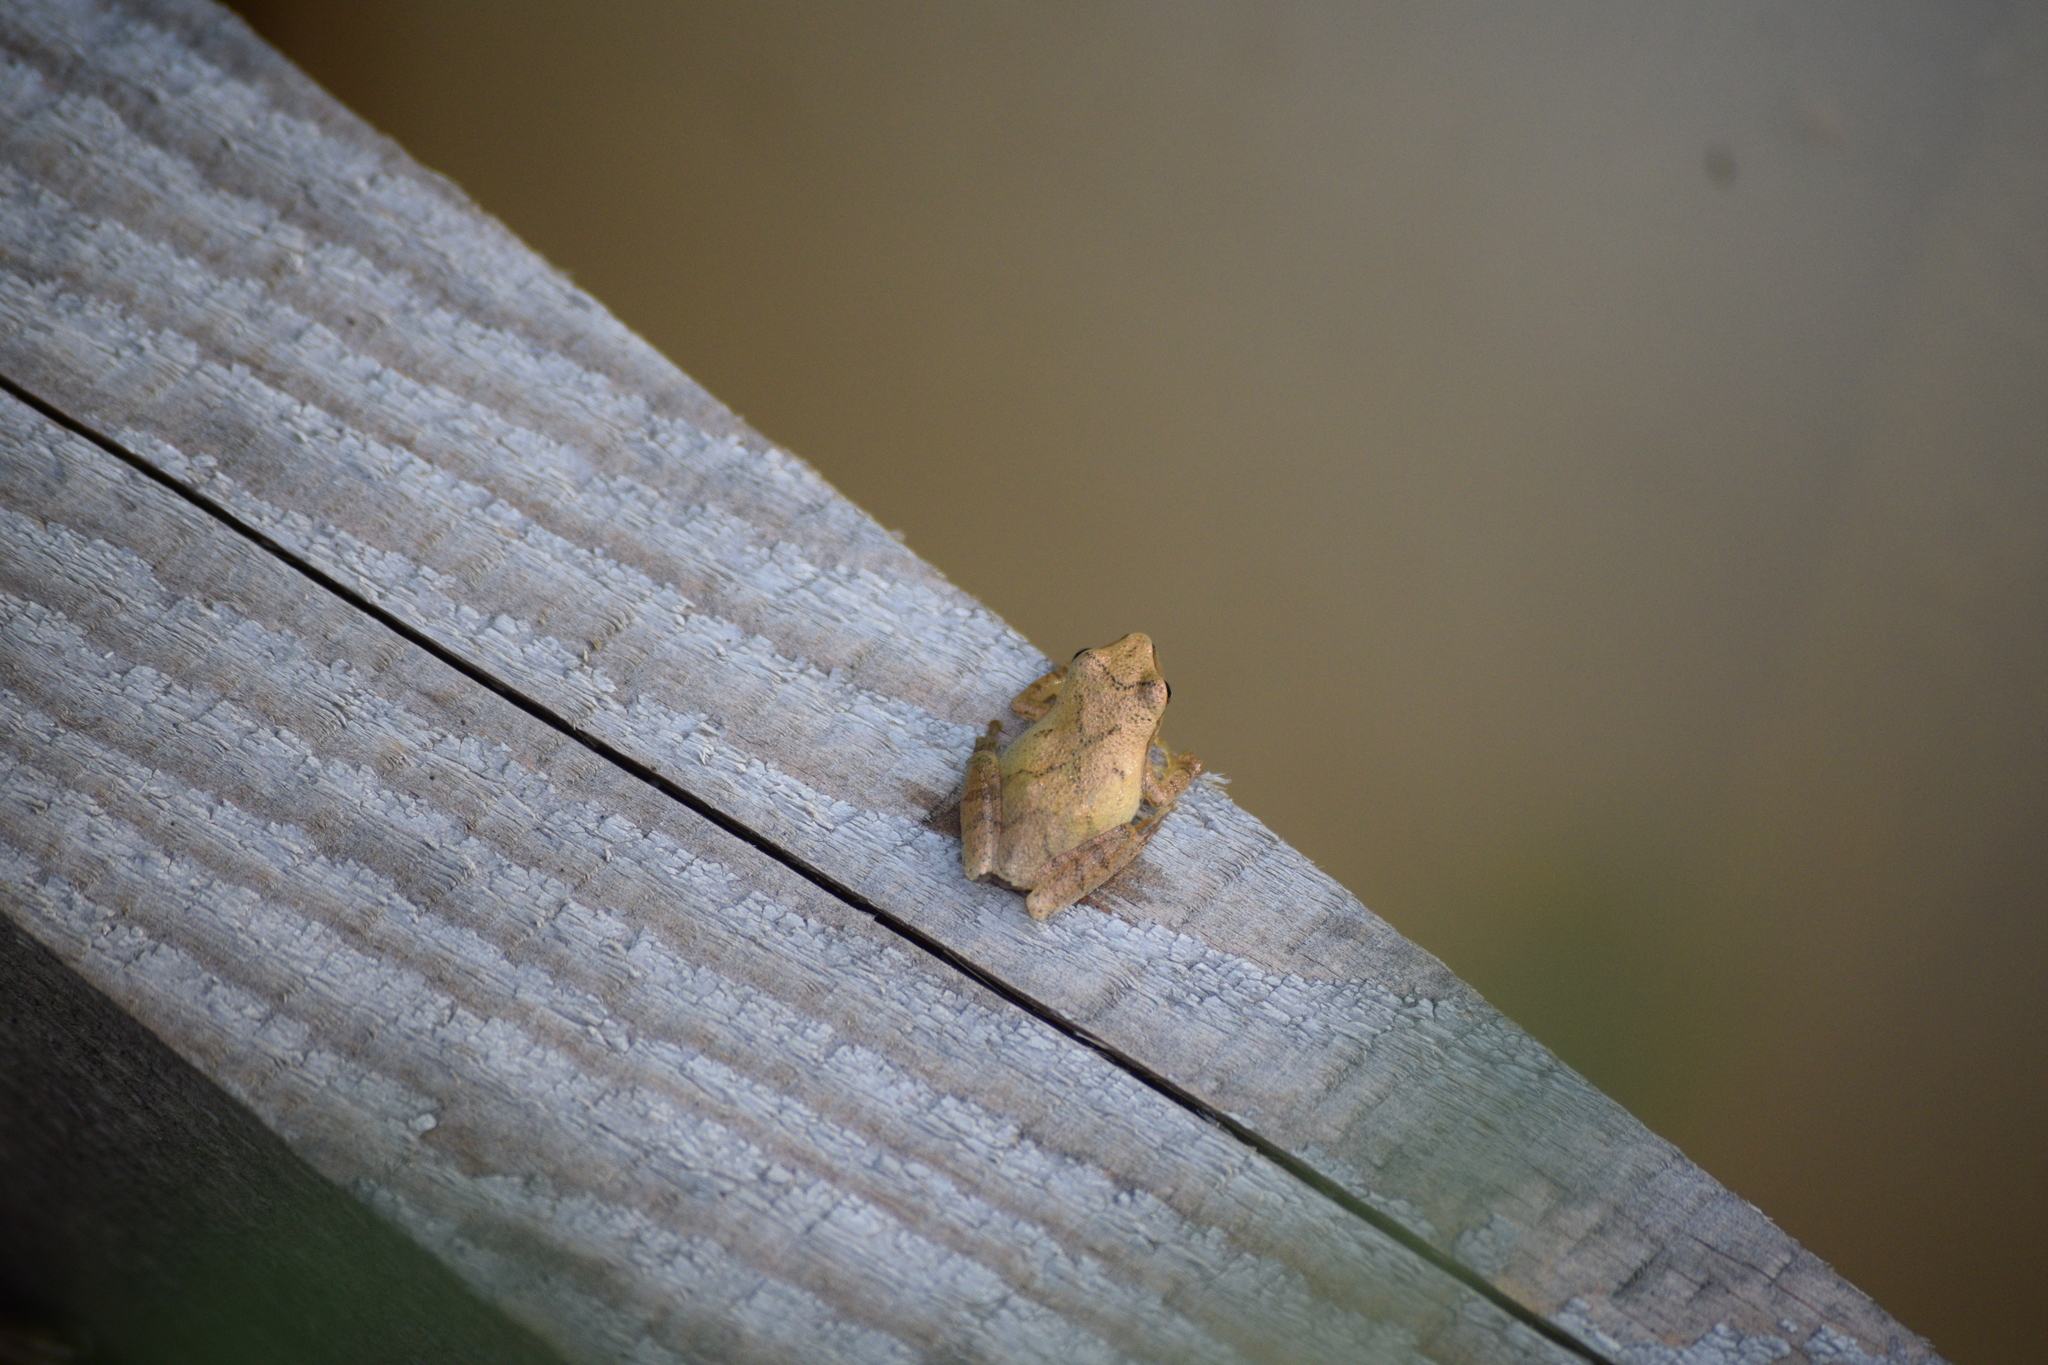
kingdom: Animalia
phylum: Chordata
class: Amphibia
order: Anura
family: Hylidae
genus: Pseudacris
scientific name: Pseudacris crucifer
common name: Spring peeper
